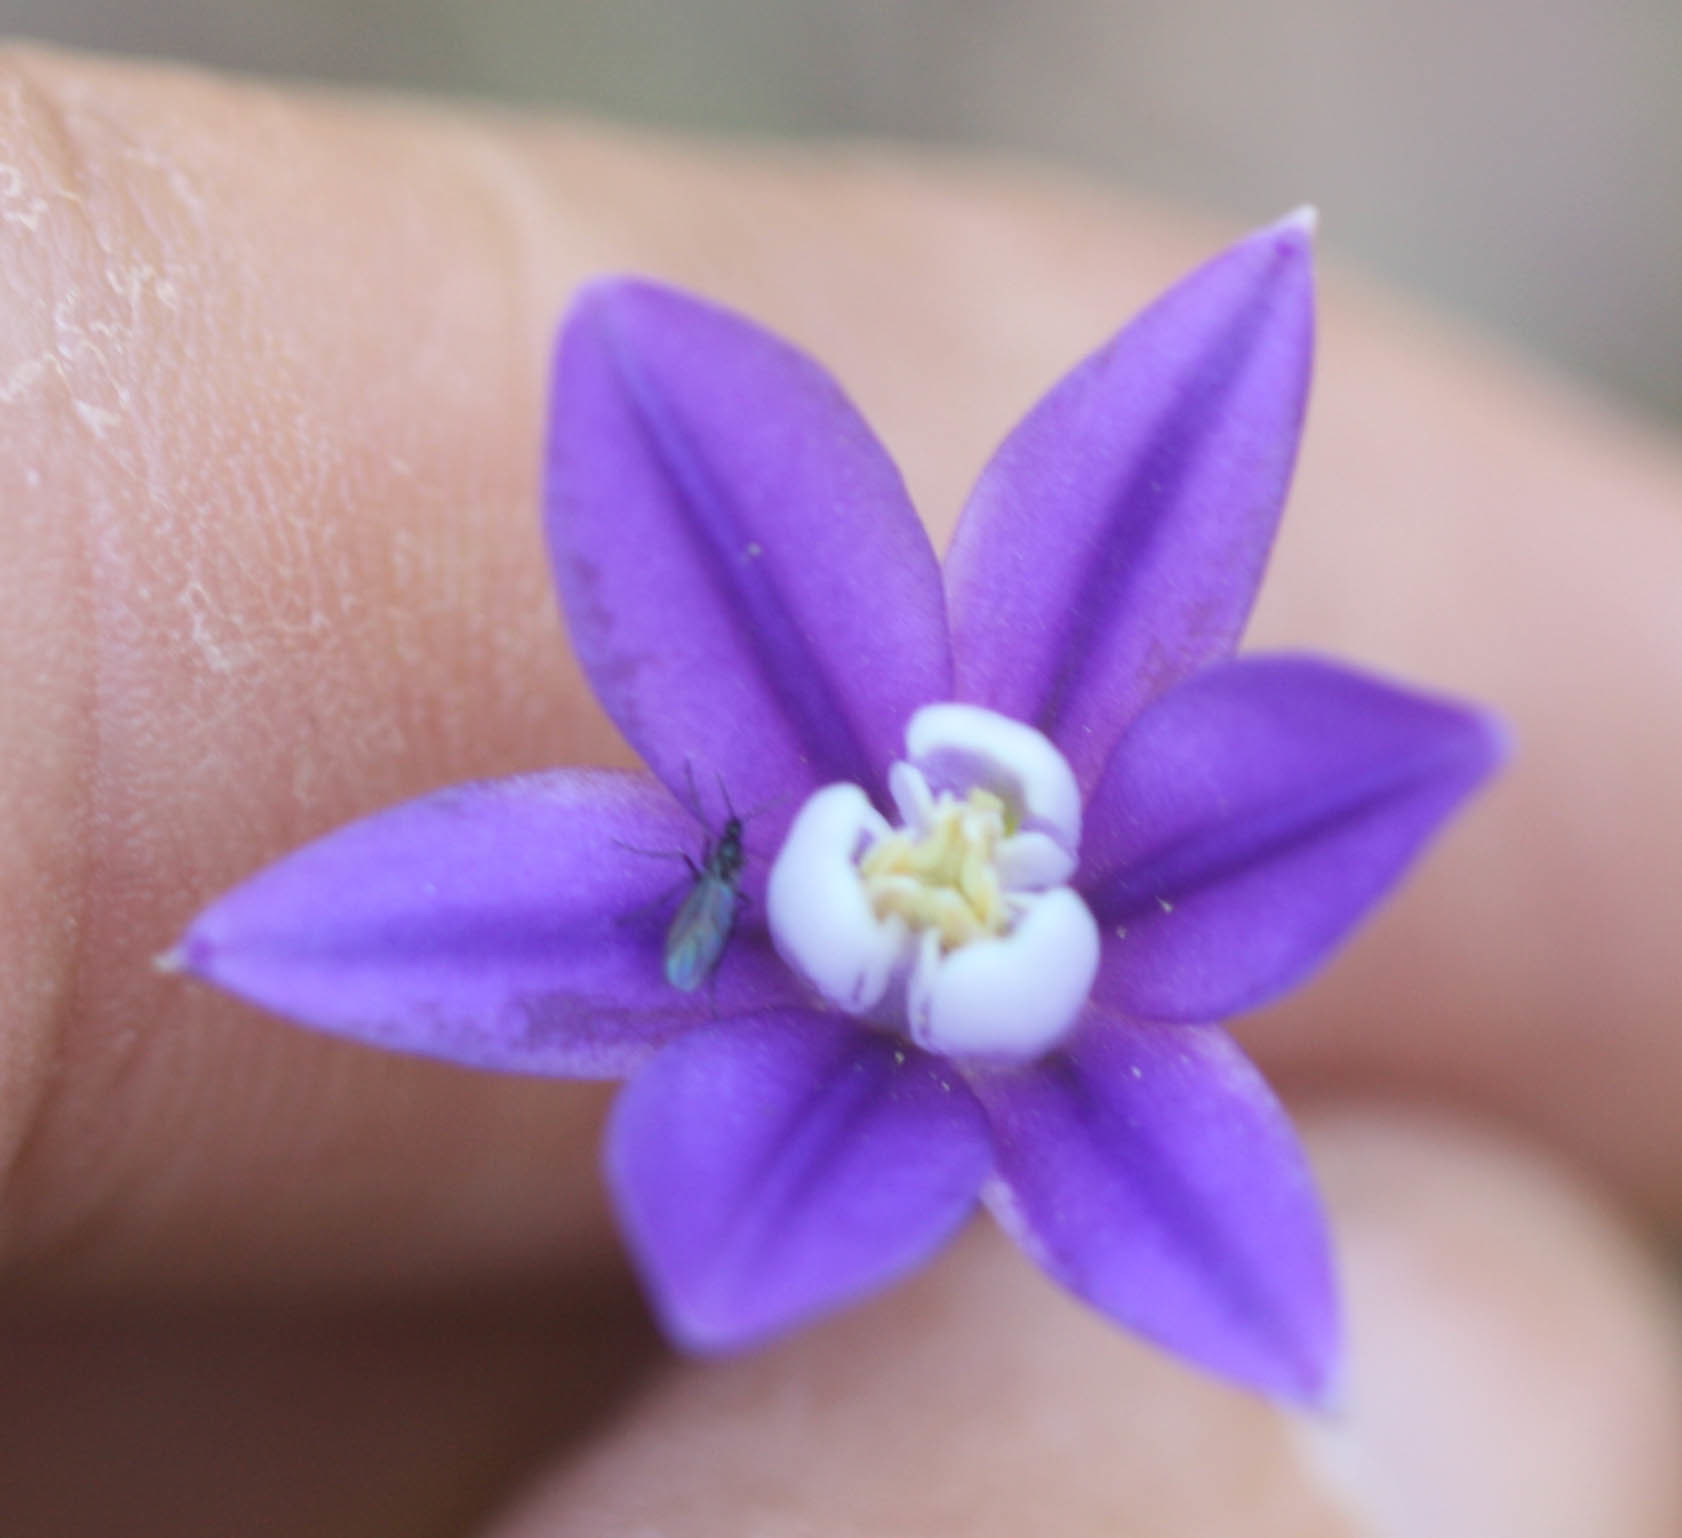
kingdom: Plantae
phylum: Tracheophyta
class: Liliopsida
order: Asparagales
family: Asparagaceae
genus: Brodiaea
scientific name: Brodiaea stellaris
